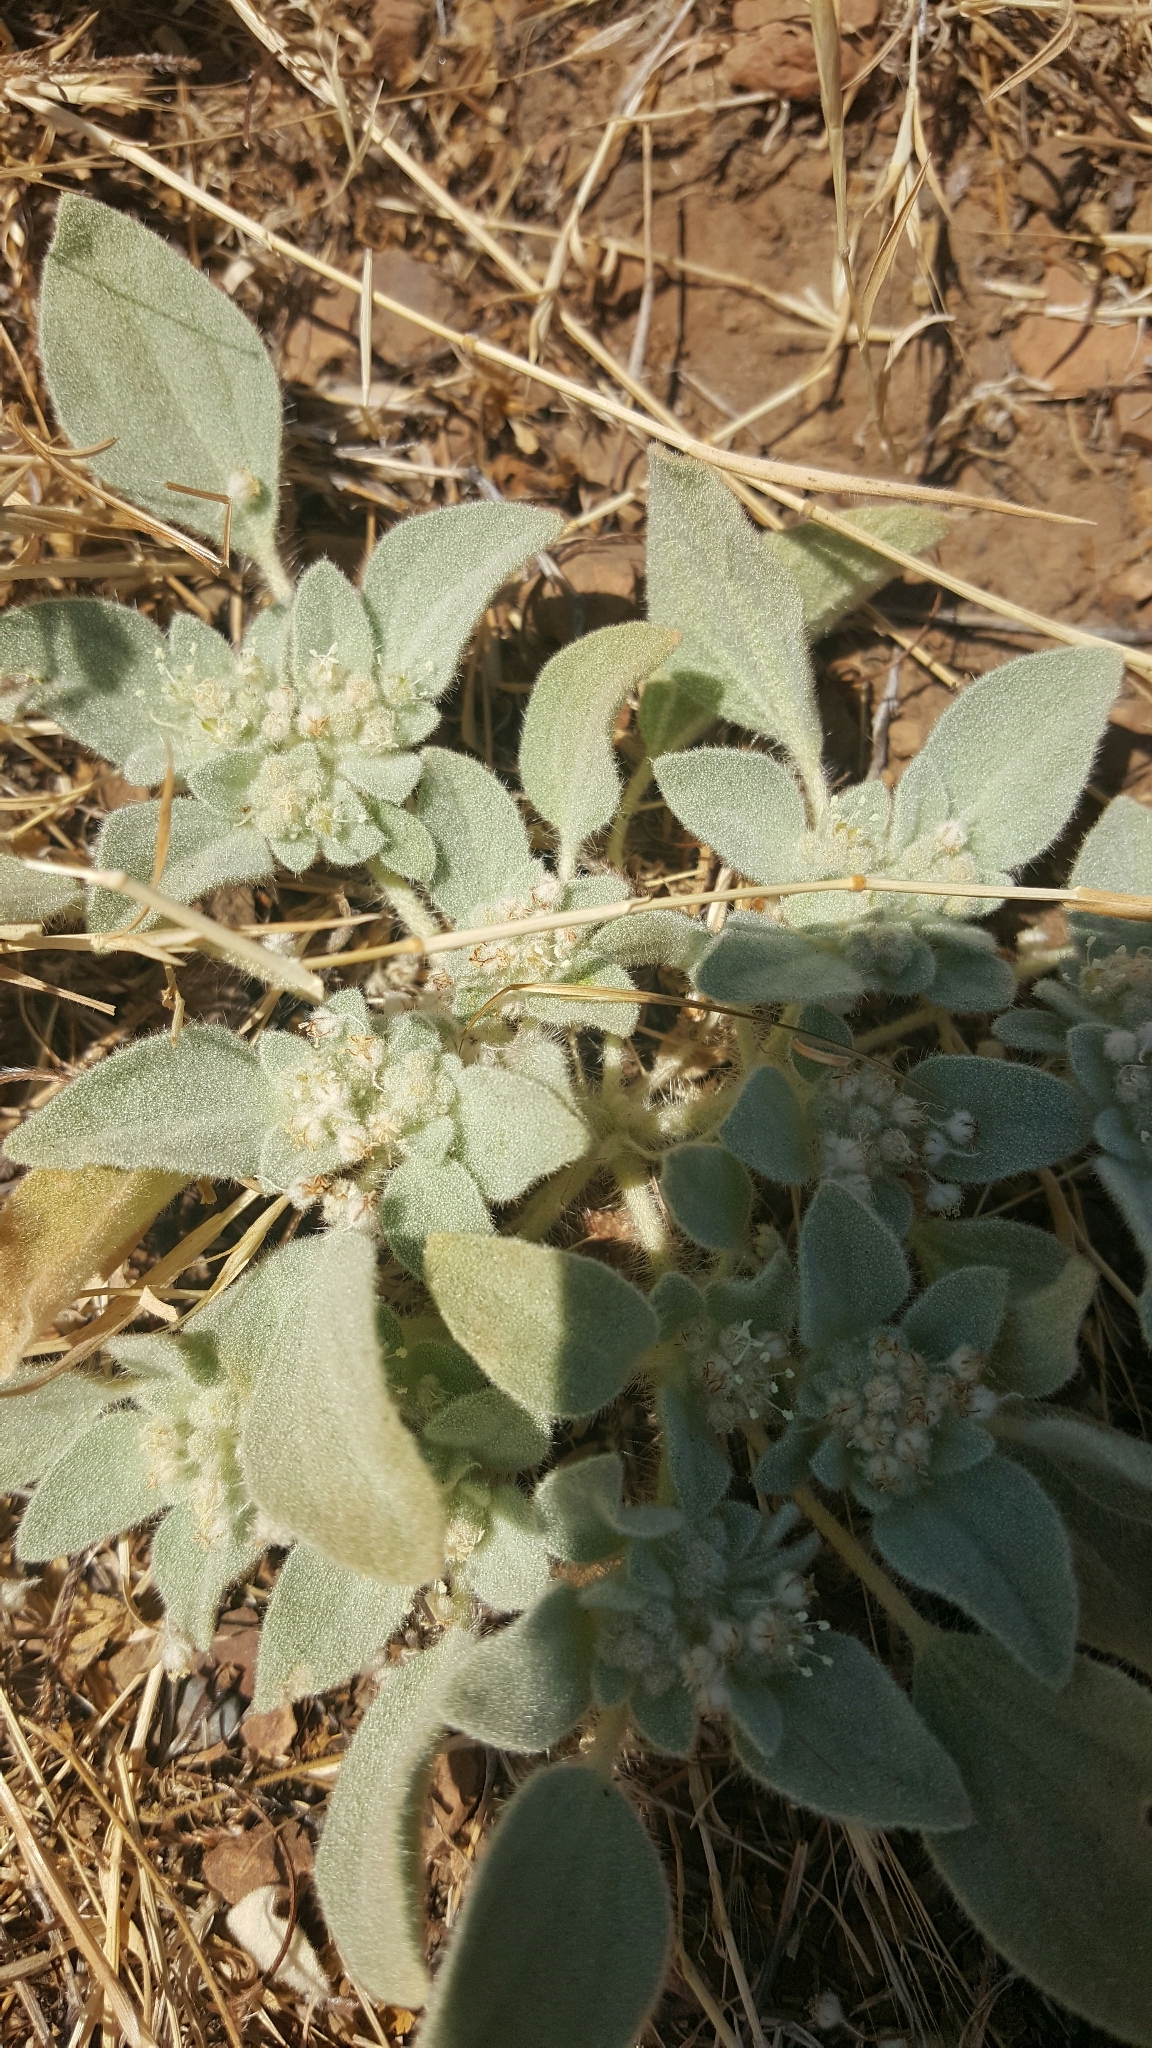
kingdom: Plantae
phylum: Tracheophyta
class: Magnoliopsida
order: Malpighiales
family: Euphorbiaceae
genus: Croton
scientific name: Croton setiger
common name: Dove weed
